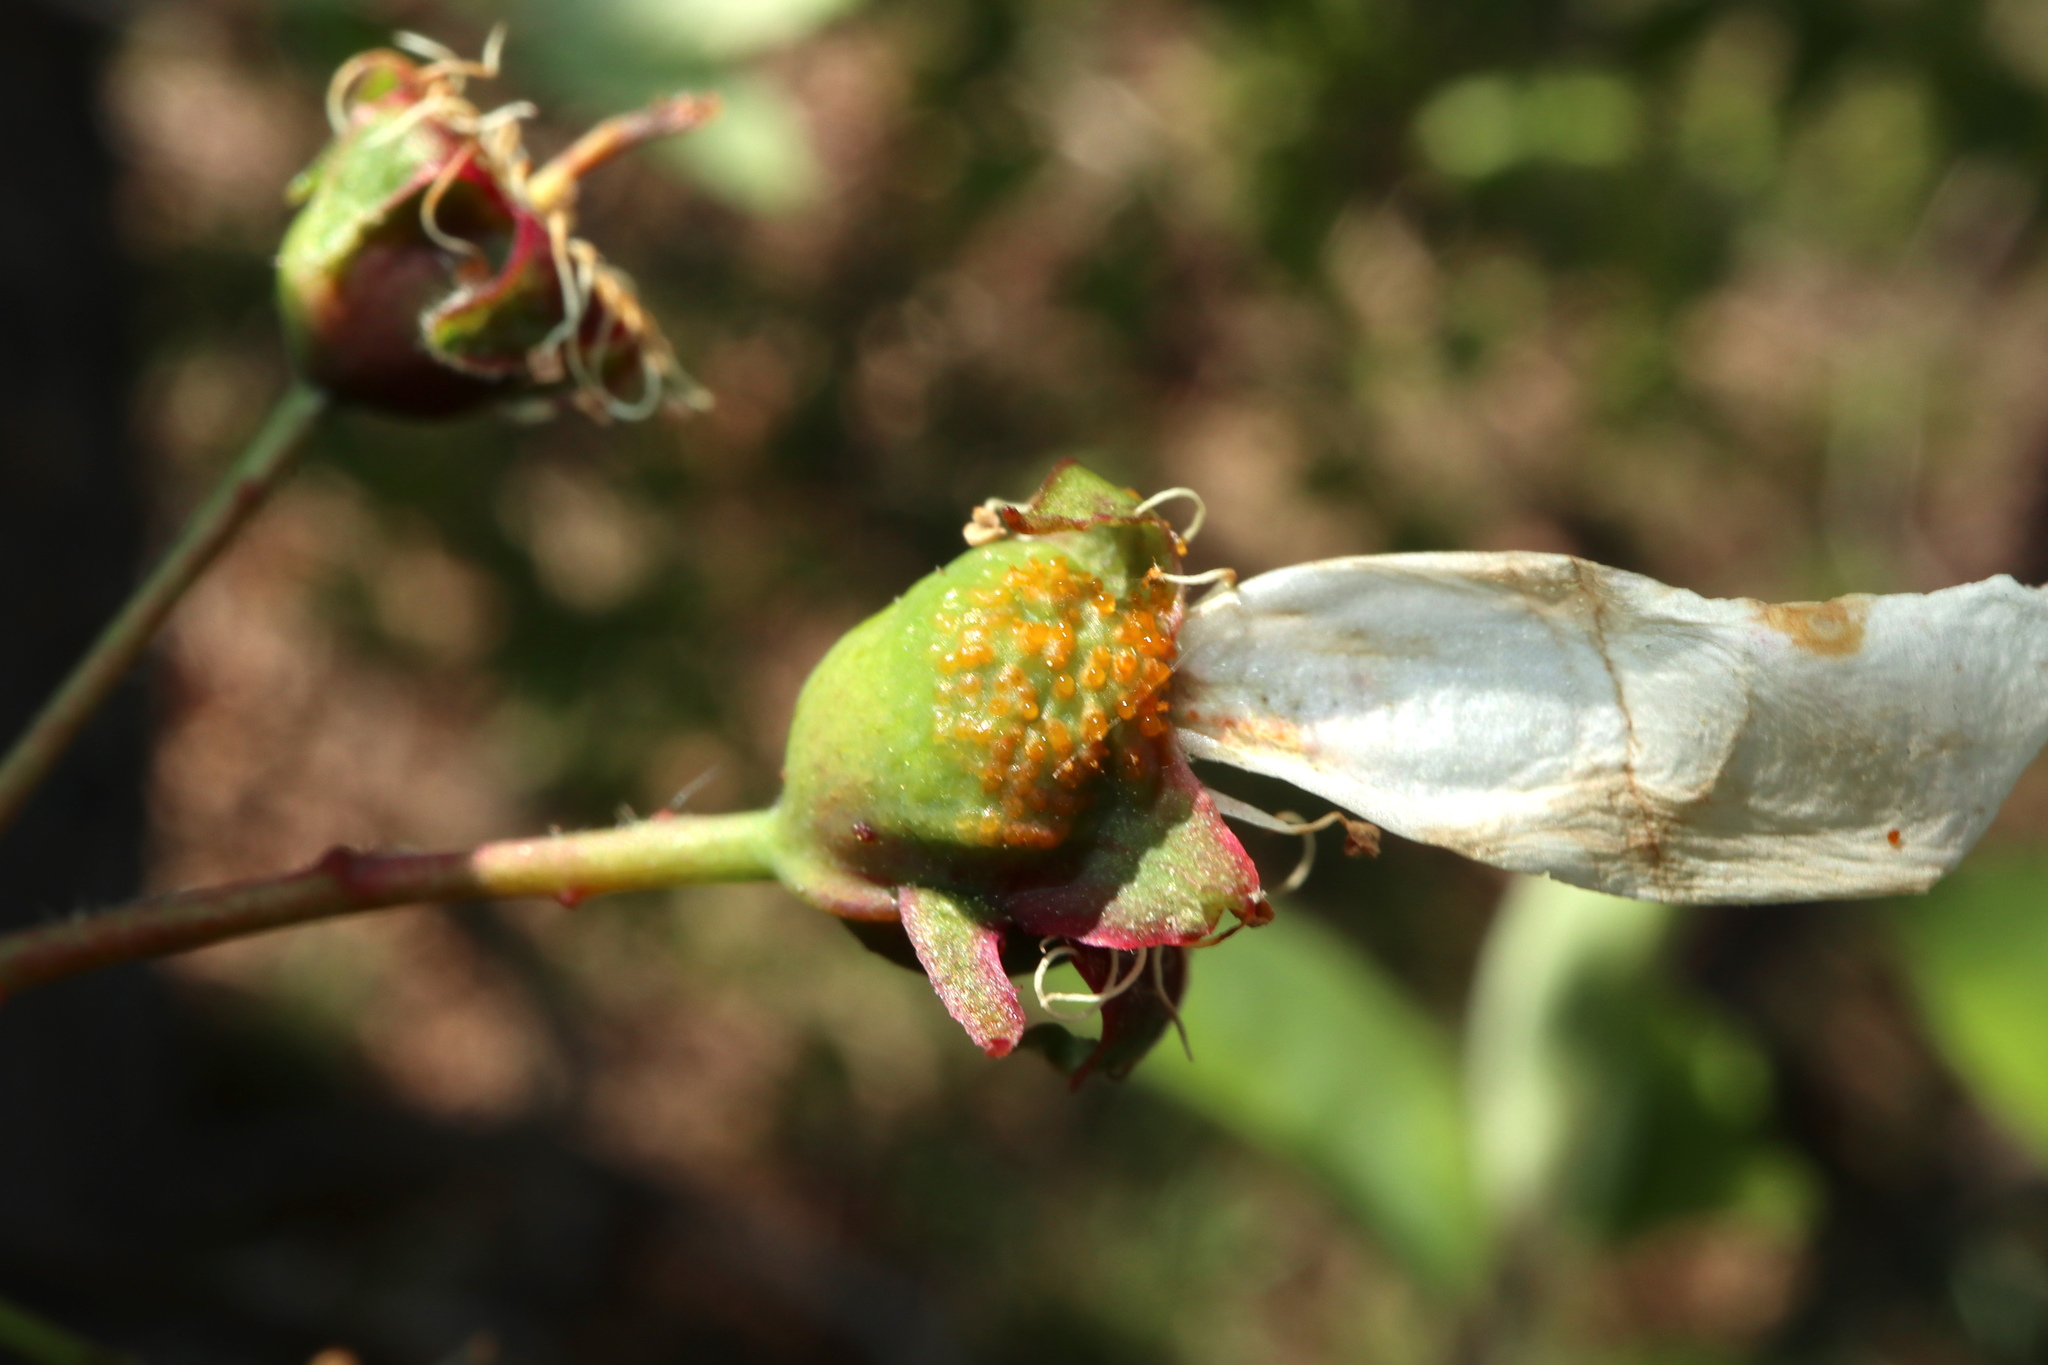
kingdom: Fungi
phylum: Basidiomycota
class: Pucciniomycetes
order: Pucciniales
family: Gymnosporangiaceae
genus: Gymnosporangium
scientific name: Gymnosporangium clavipes
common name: Quince rust
